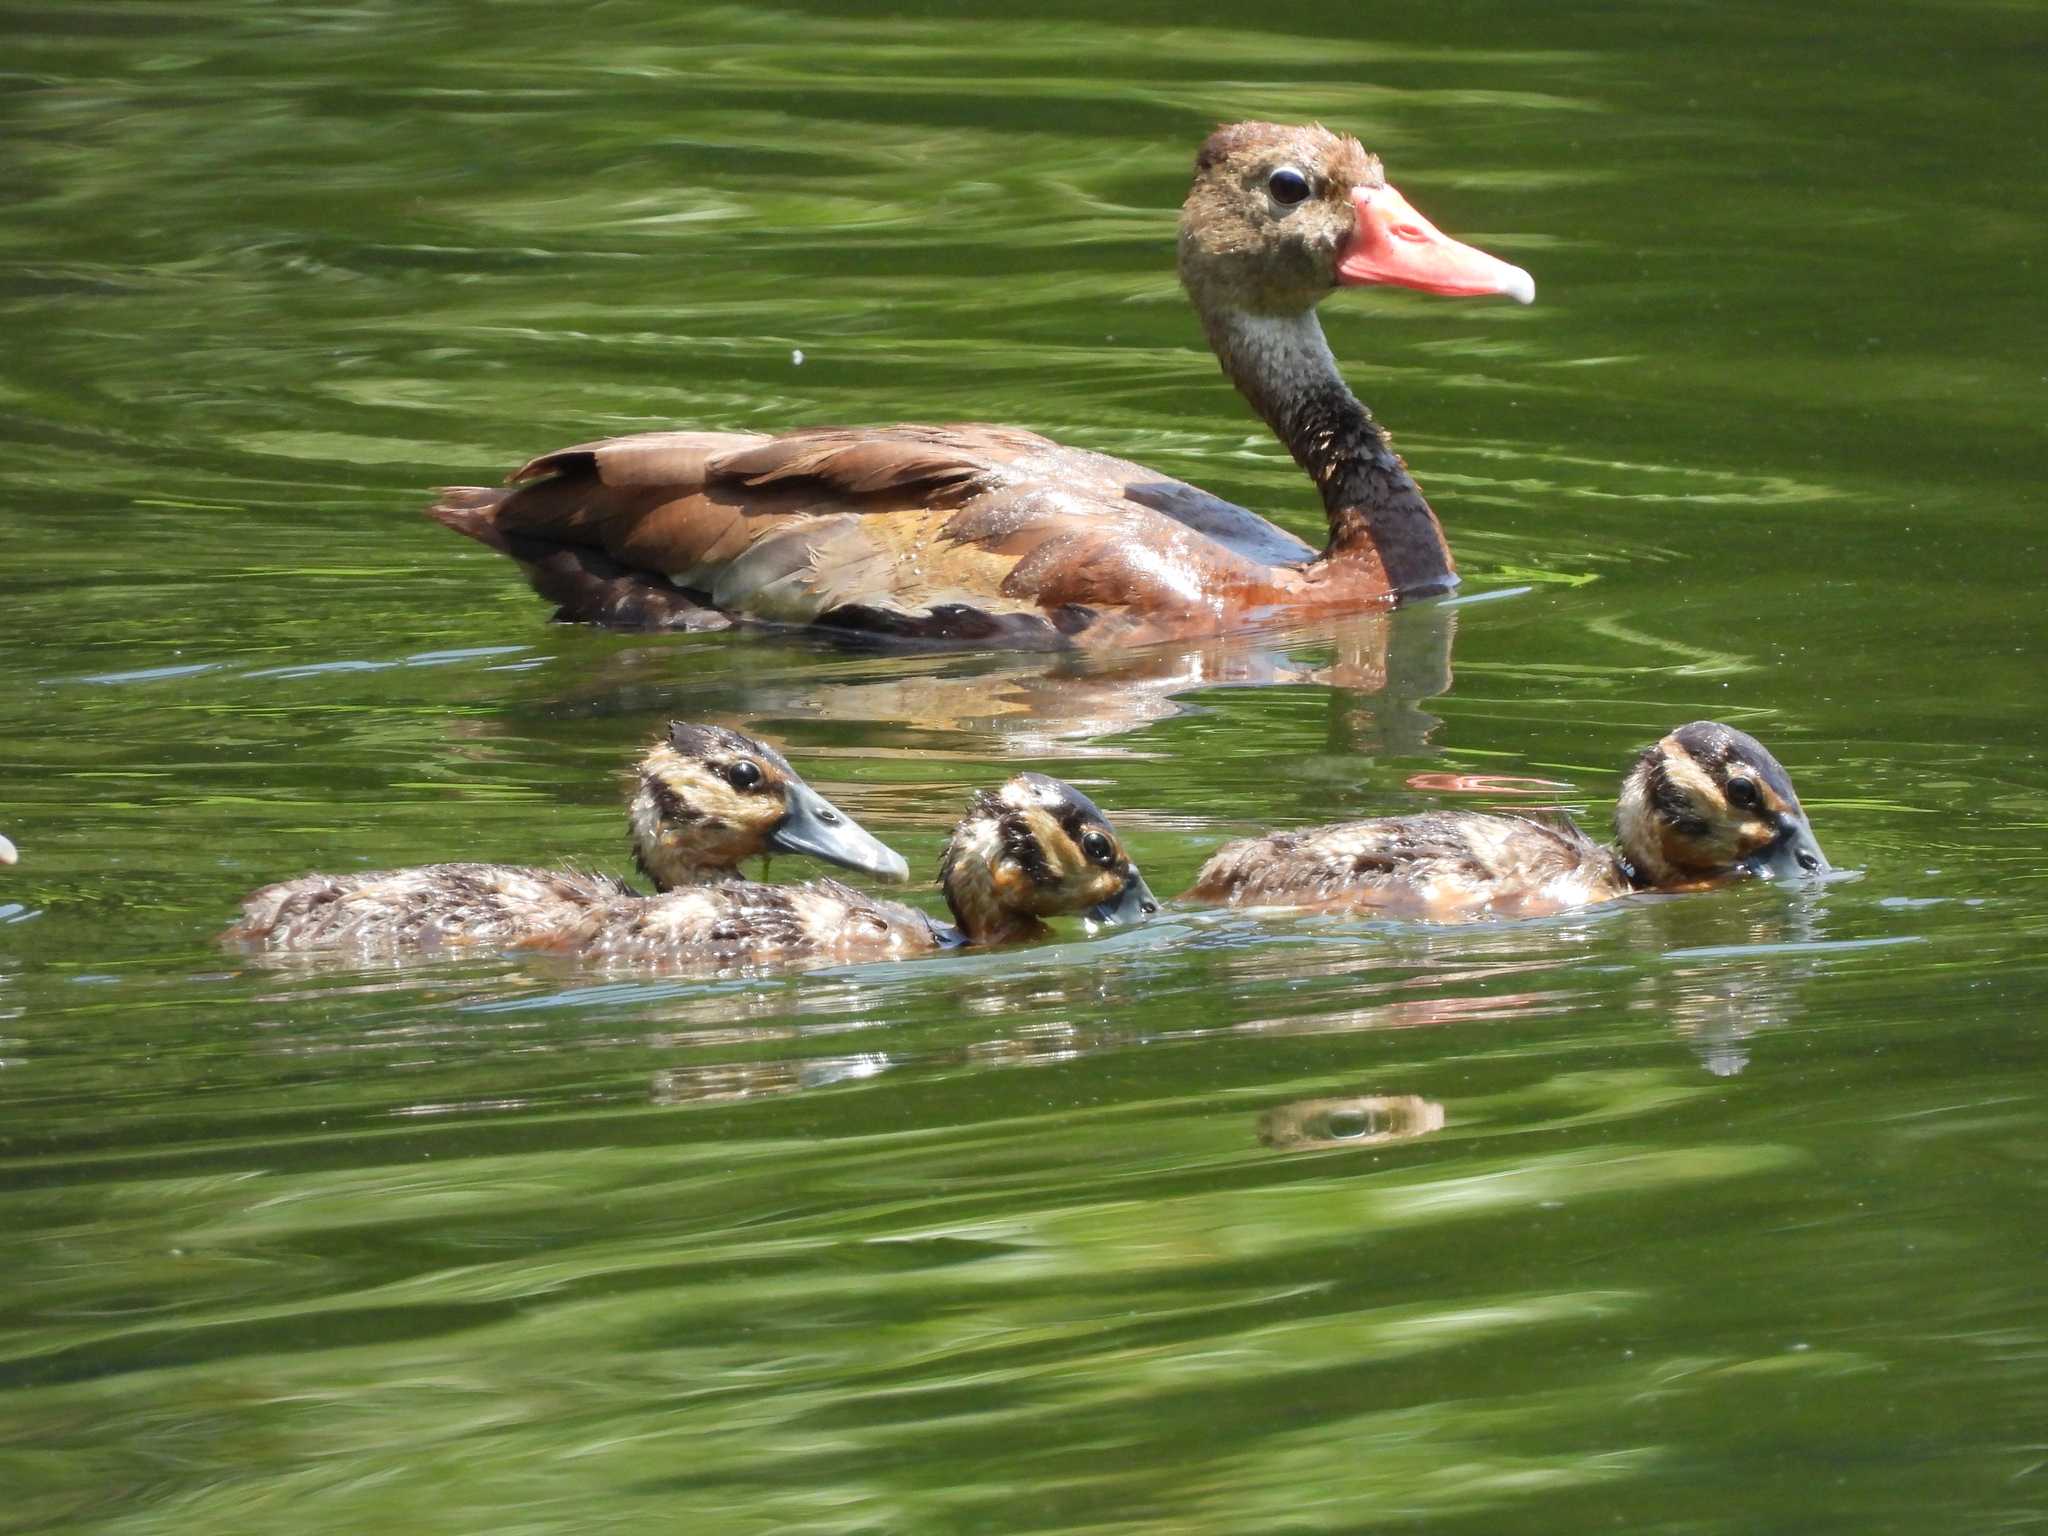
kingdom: Animalia
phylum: Chordata
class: Aves
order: Anseriformes
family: Anatidae
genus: Dendrocygna
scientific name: Dendrocygna autumnalis
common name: Black-bellied whistling duck
